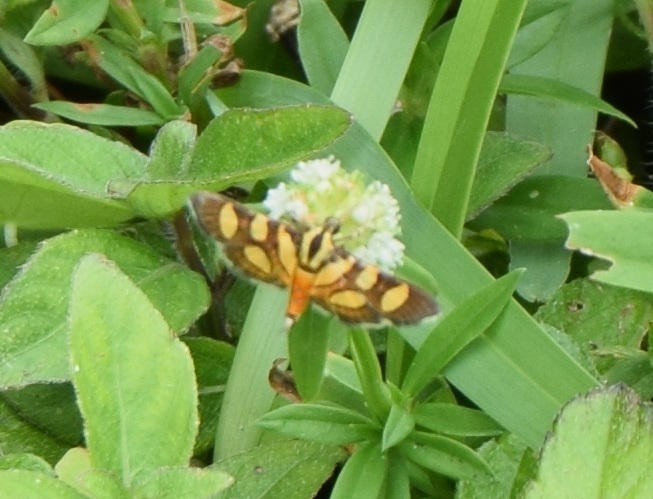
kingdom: Animalia
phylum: Arthropoda
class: Insecta
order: Lepidoptera
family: Crambidae
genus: Syngamia
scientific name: Syngamia florella
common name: Orange-spotted flower moth
